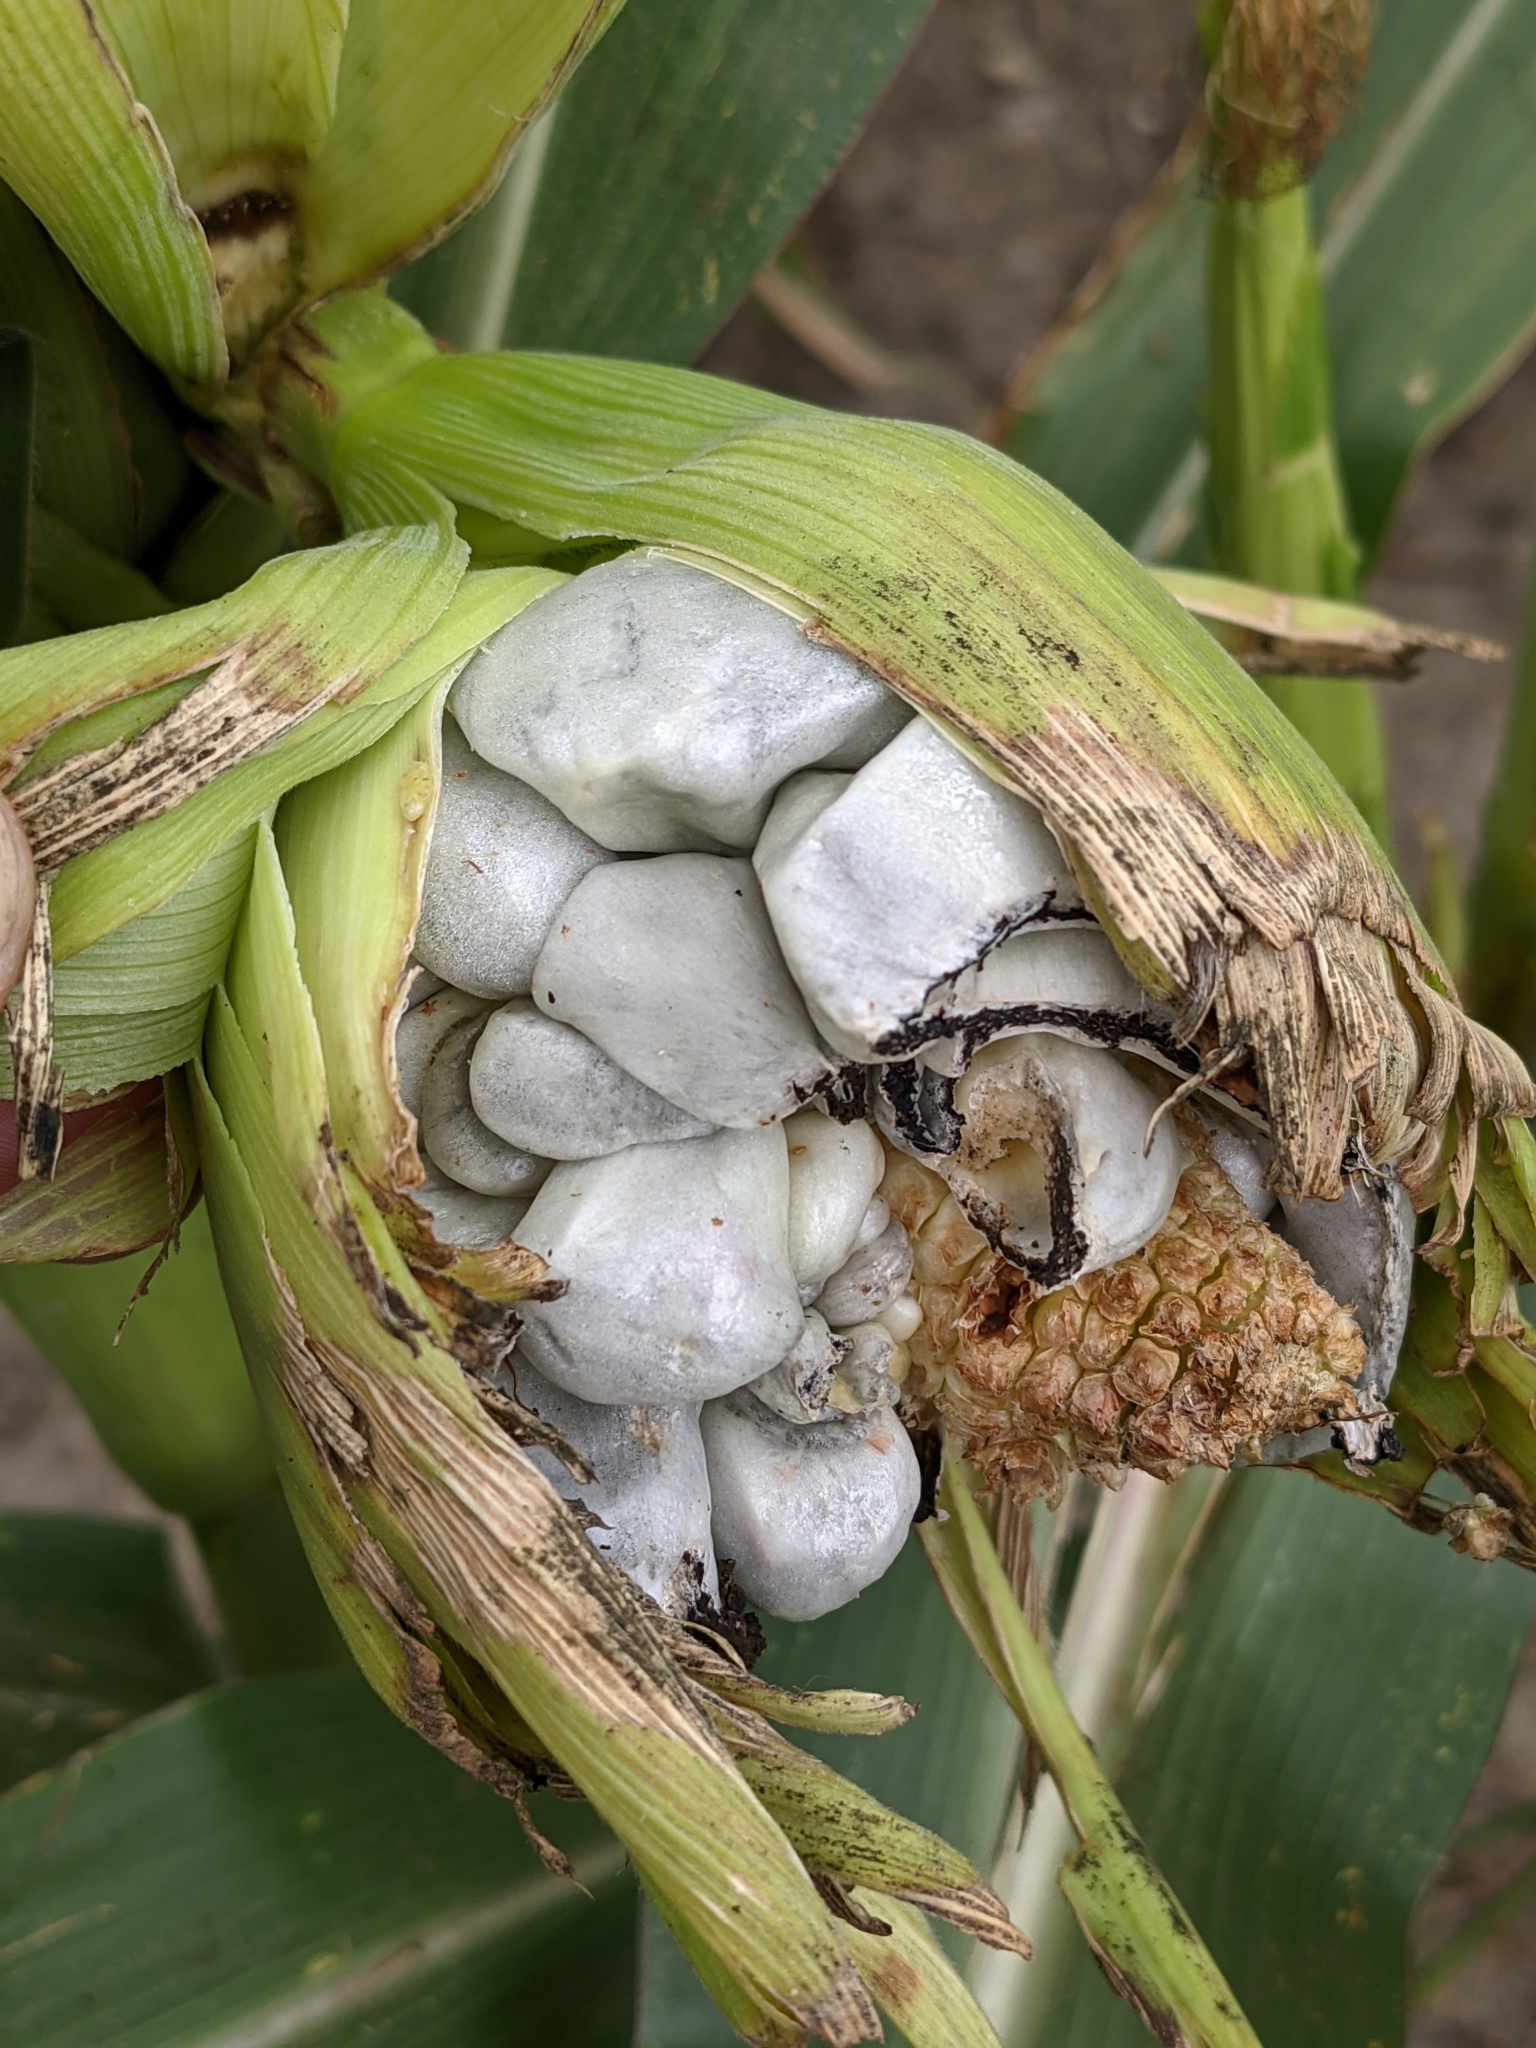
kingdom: Fungi
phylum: Basidiomycota
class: Ustilaginomycetes
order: Ustilaginales
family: Ustilaginaceae
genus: Mycosarcoma
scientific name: Mycosarcoma maydis
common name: Corn smut
